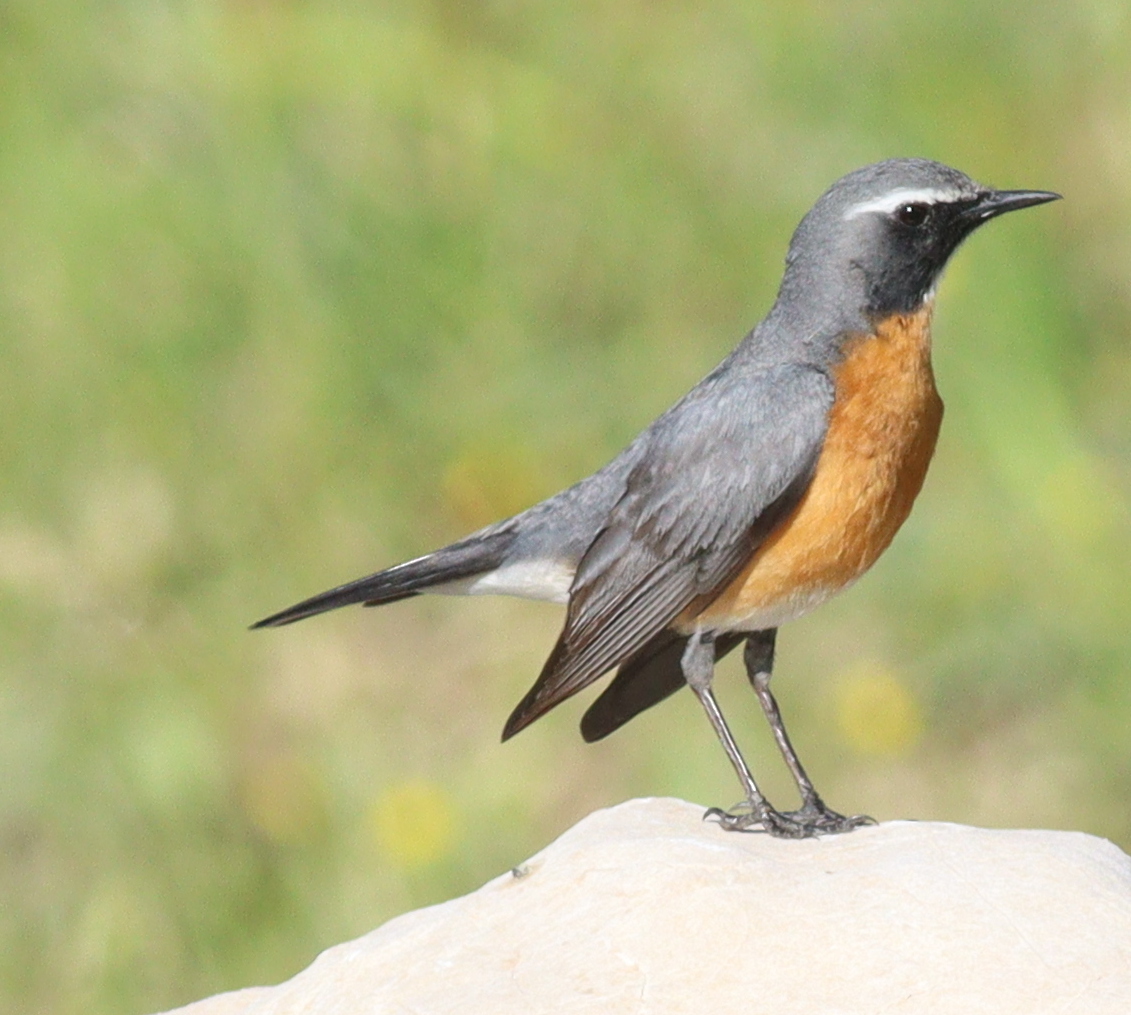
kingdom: Animalia
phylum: Chordata
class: Aves
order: Passeriformes
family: Muscicapidae
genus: Irania
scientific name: Irania gutturalis
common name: White-throated robin
